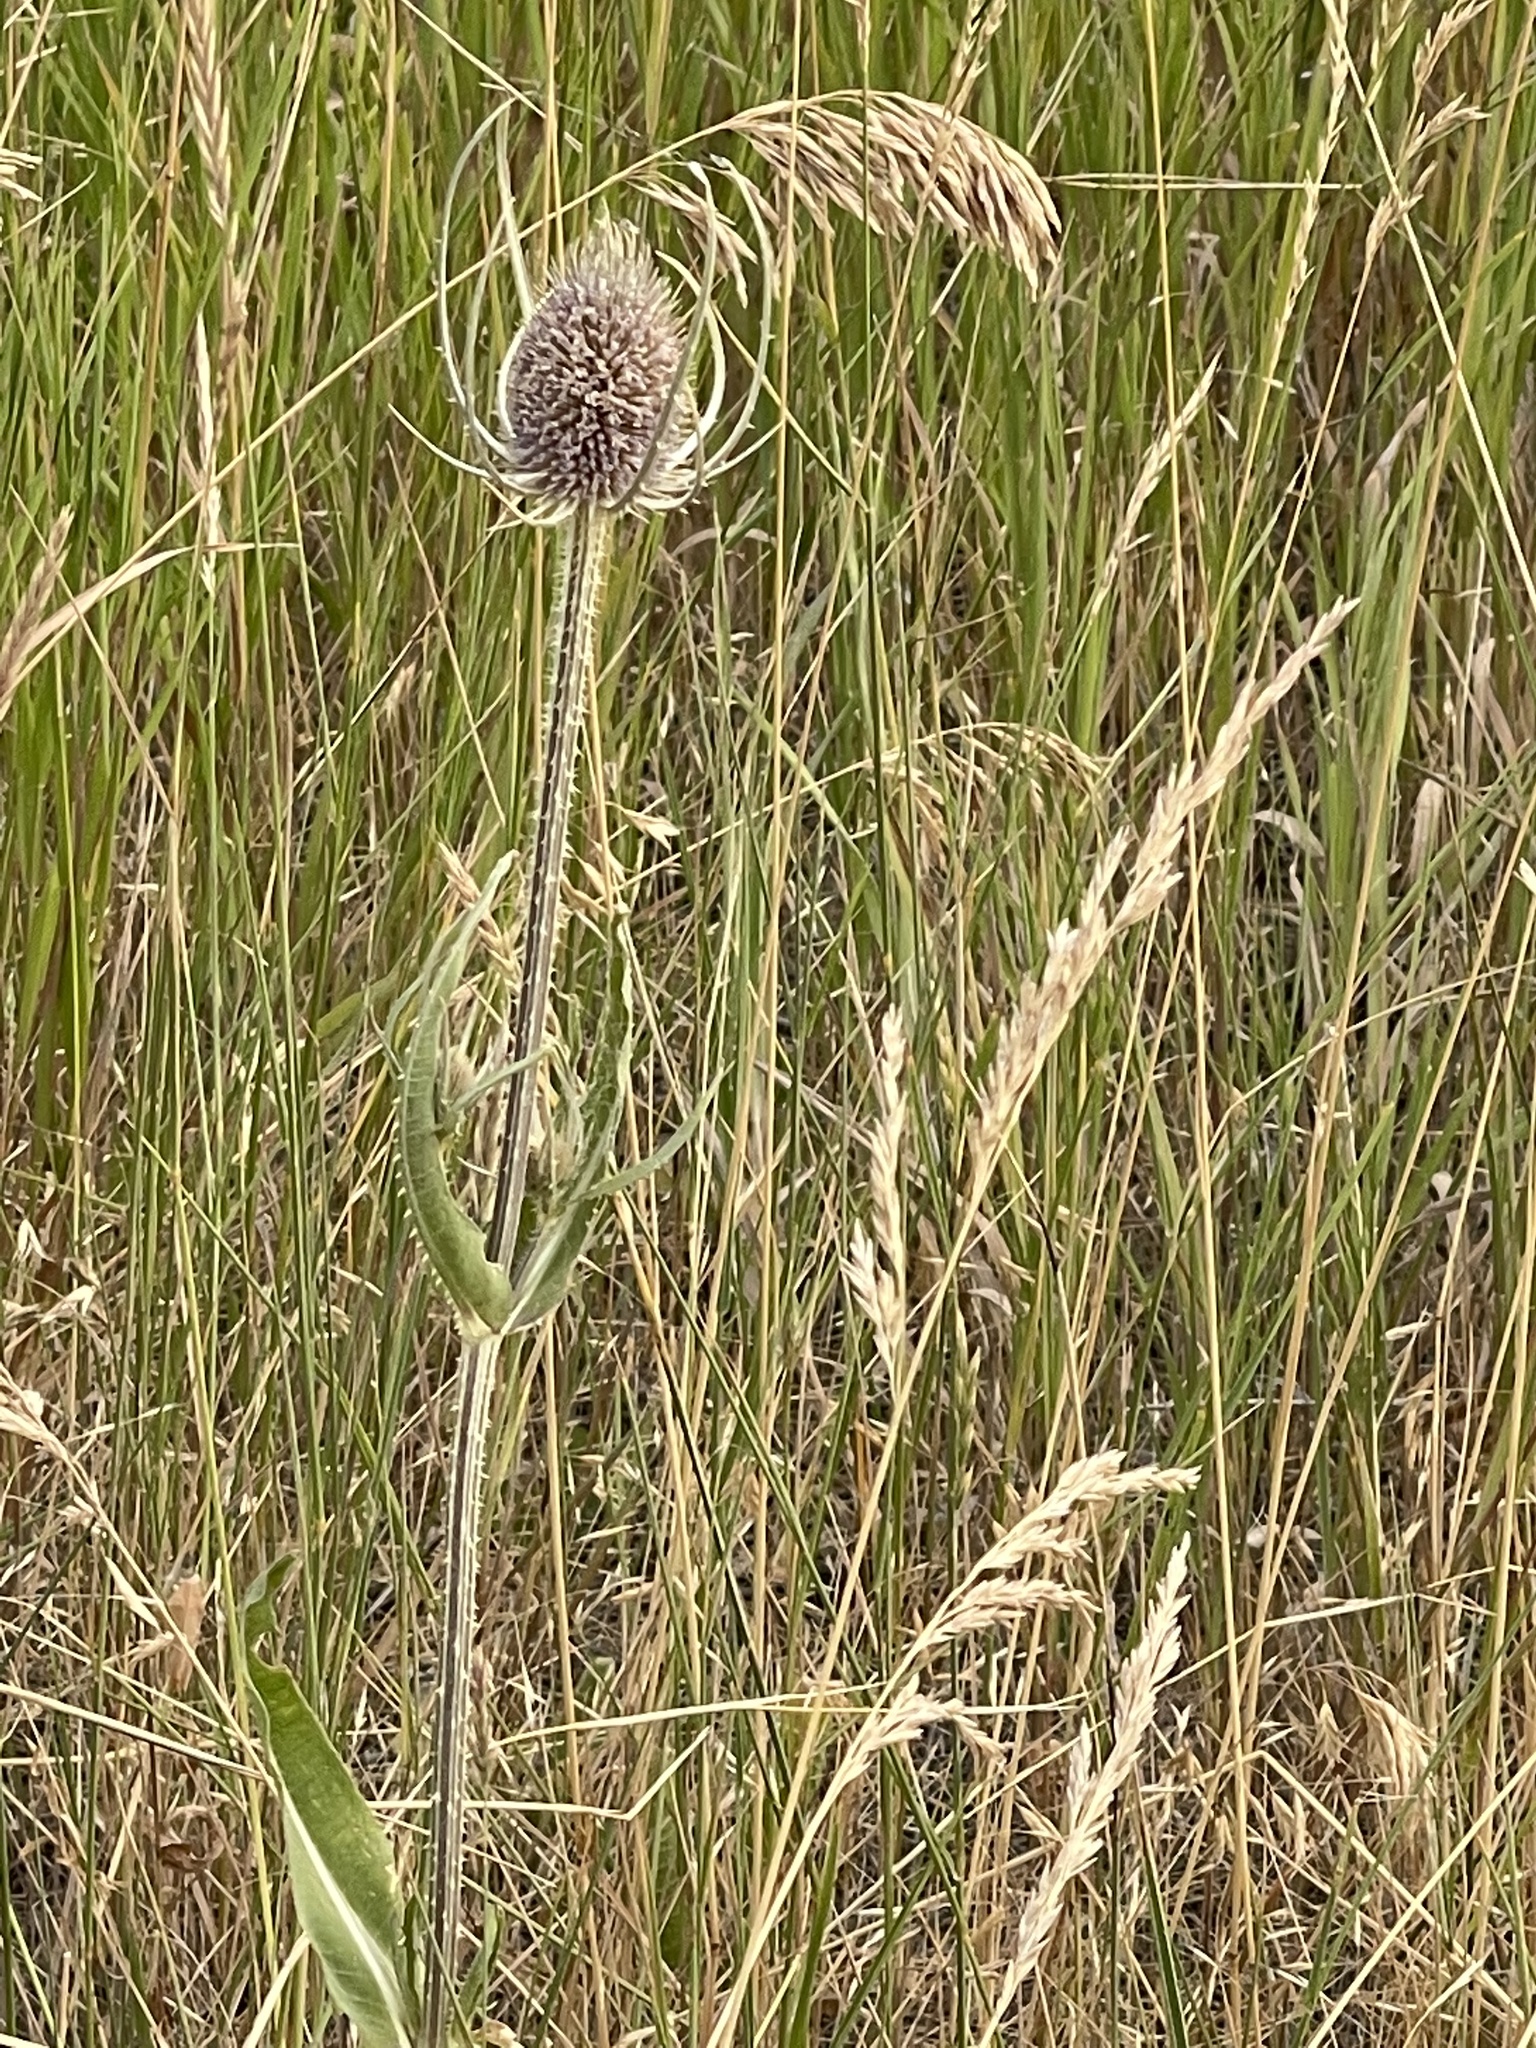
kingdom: Plantae
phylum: Tracheophyta
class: Magnoliopsida
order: Dipsacales
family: Caprifoliaceae
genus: Dipsacus
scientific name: Dipsacus fullonum
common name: Teasel
